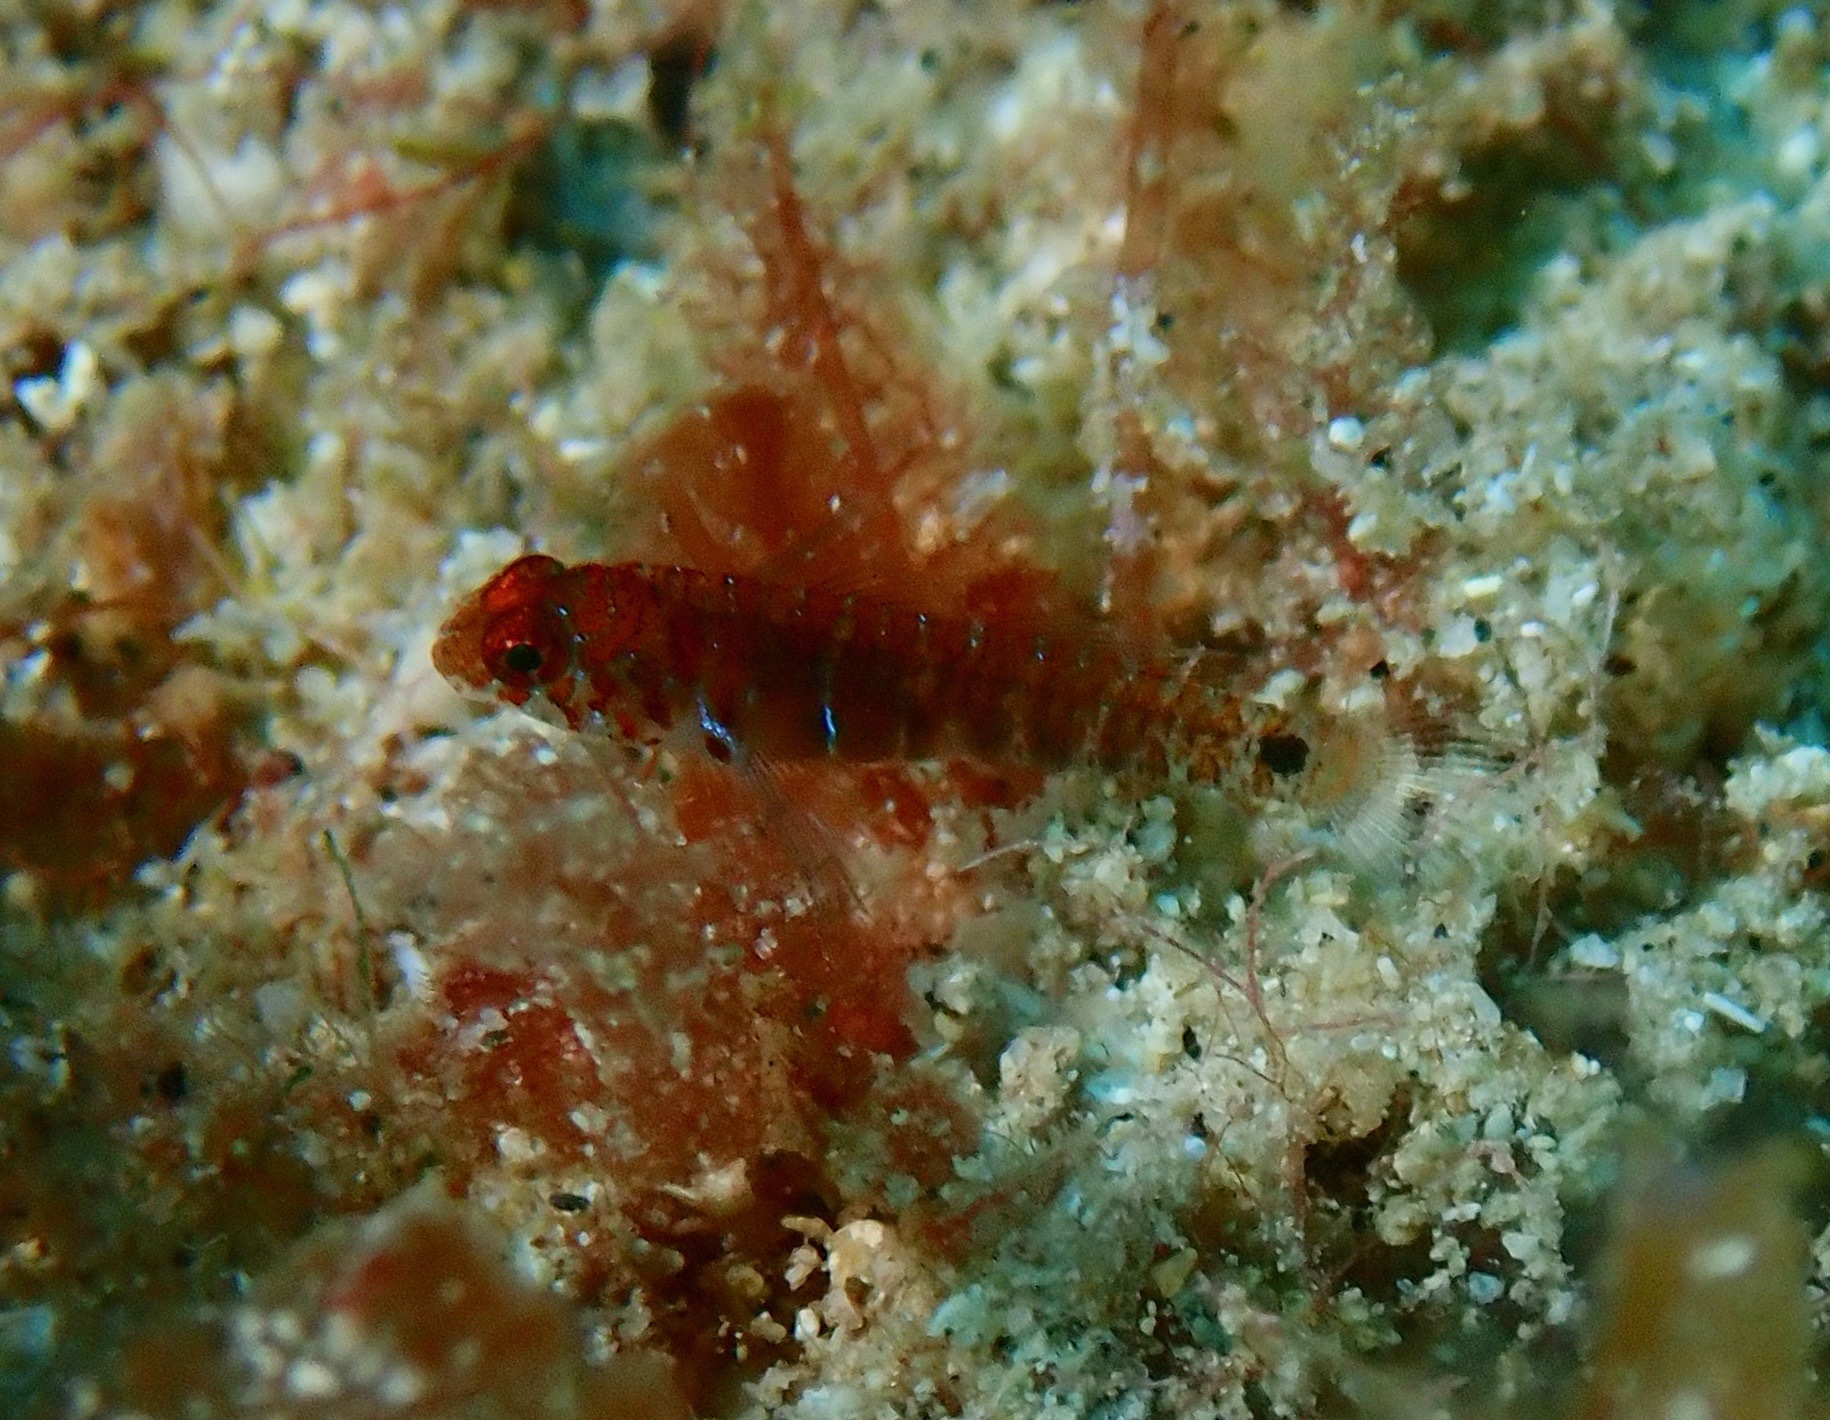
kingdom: Animalia
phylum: Chordata
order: Perciformes
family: Gobiidae
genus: Eviota
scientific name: Eviota hoesei
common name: Doug's eviota
